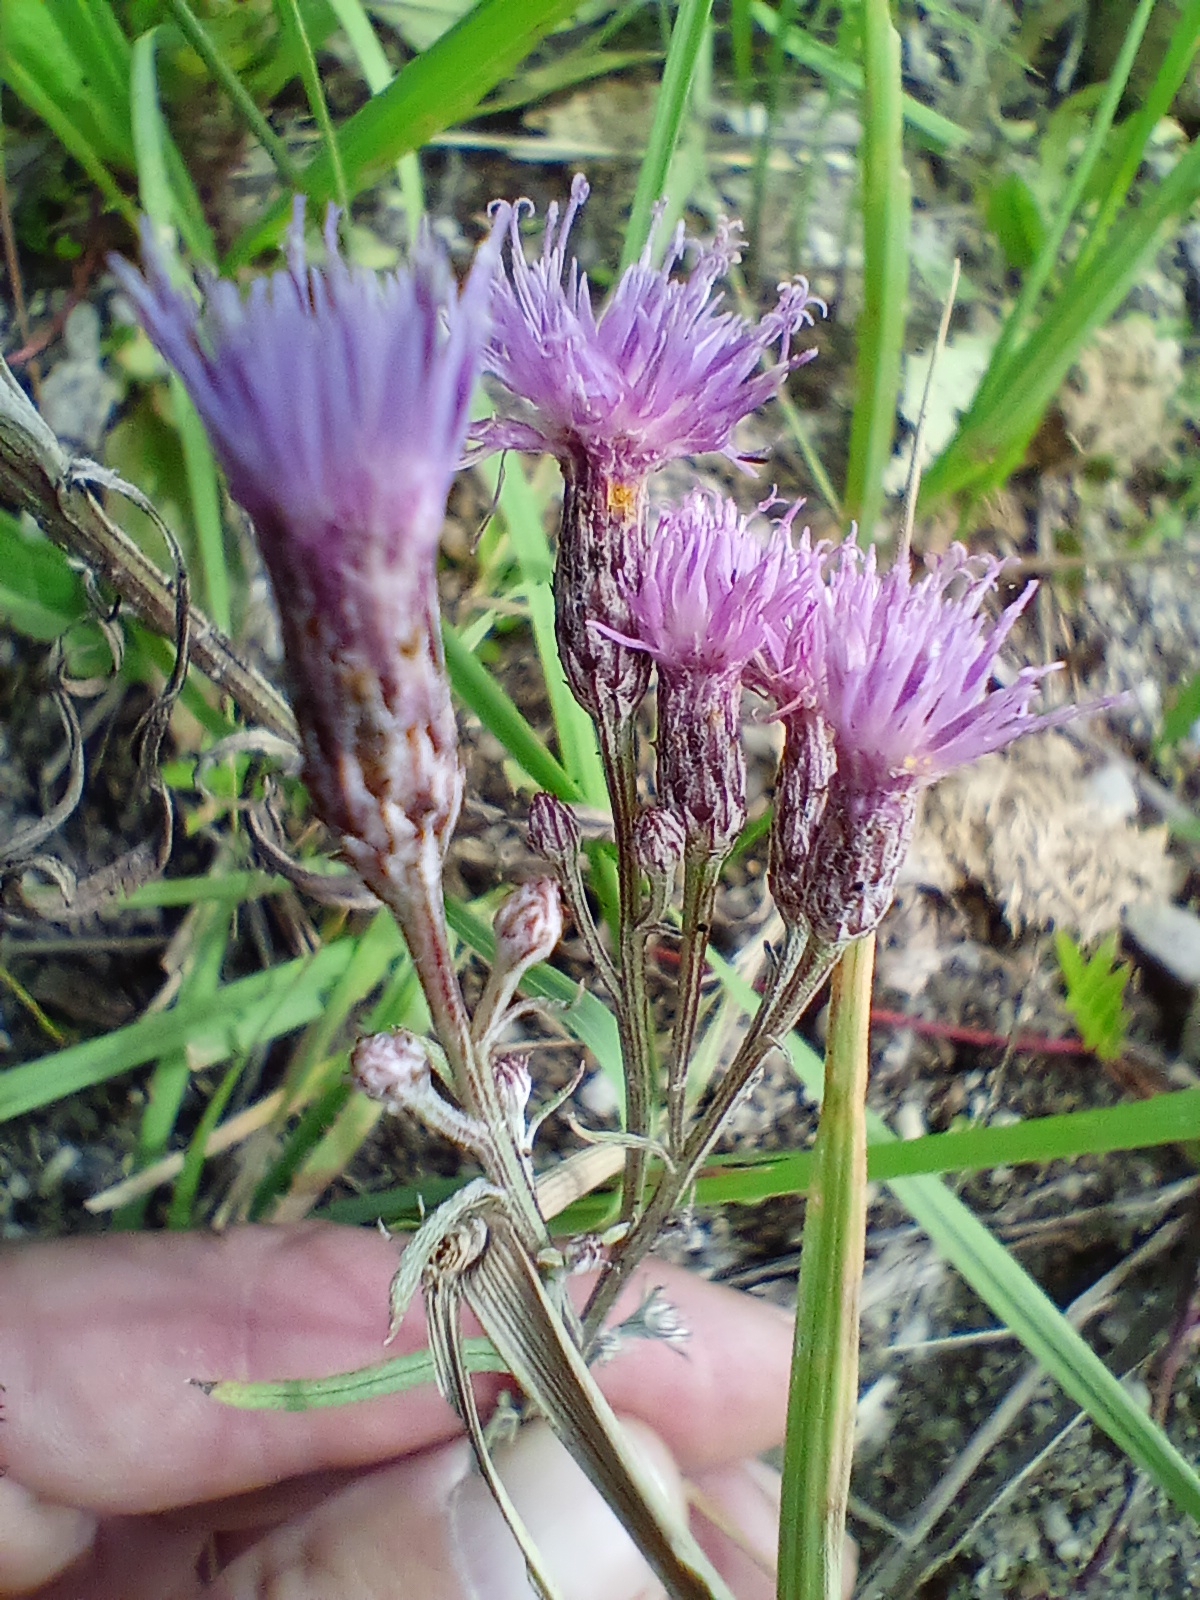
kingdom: Plantae
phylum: Tracheophyta
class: Magnoliopsida
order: Asterales
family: Asteraceae
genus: Saussurea
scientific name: Saussurea amara
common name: Alberta sawwort
